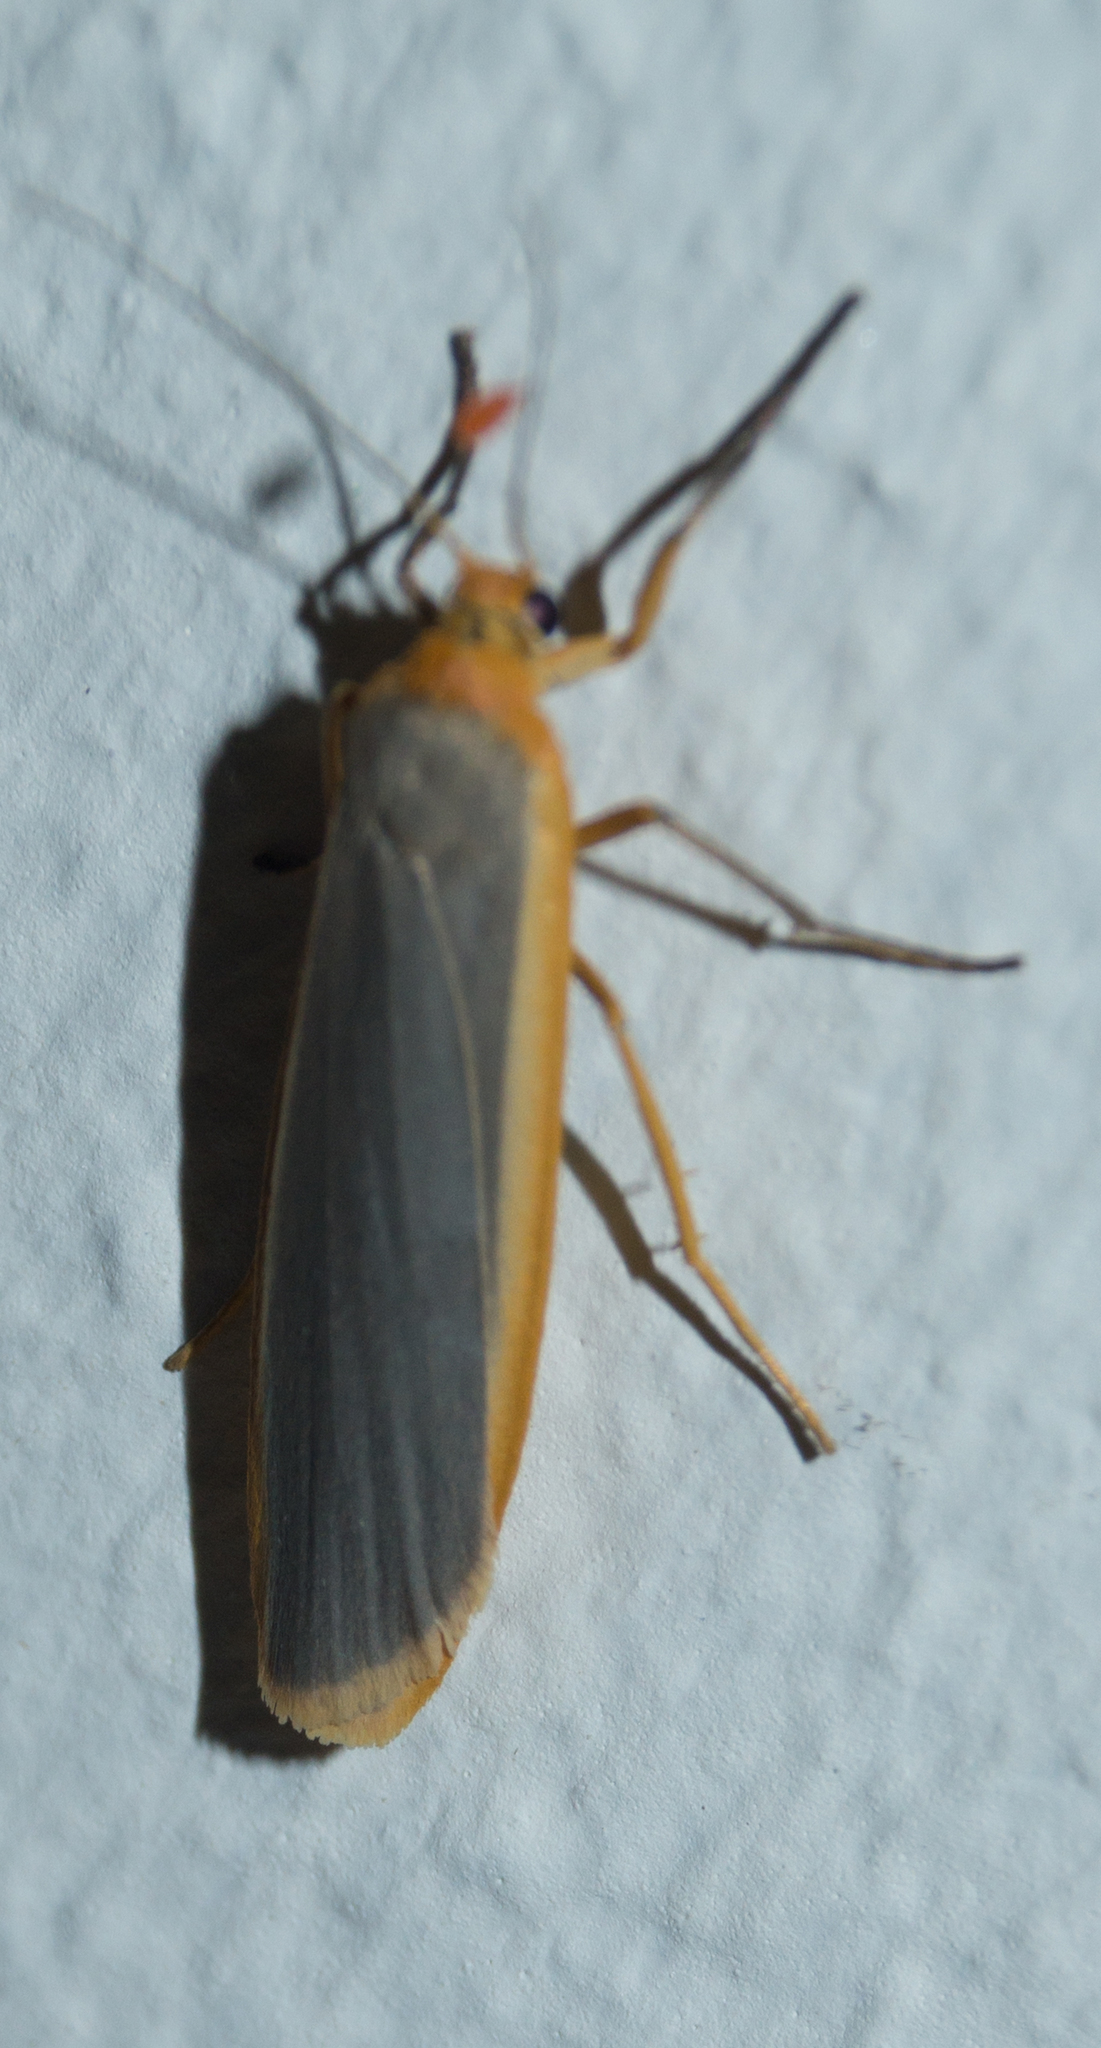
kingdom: Animalia
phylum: Arthropoda
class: Insecta
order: Lepidoptera
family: Erebidae
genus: Manulea
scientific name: Manulea complana
